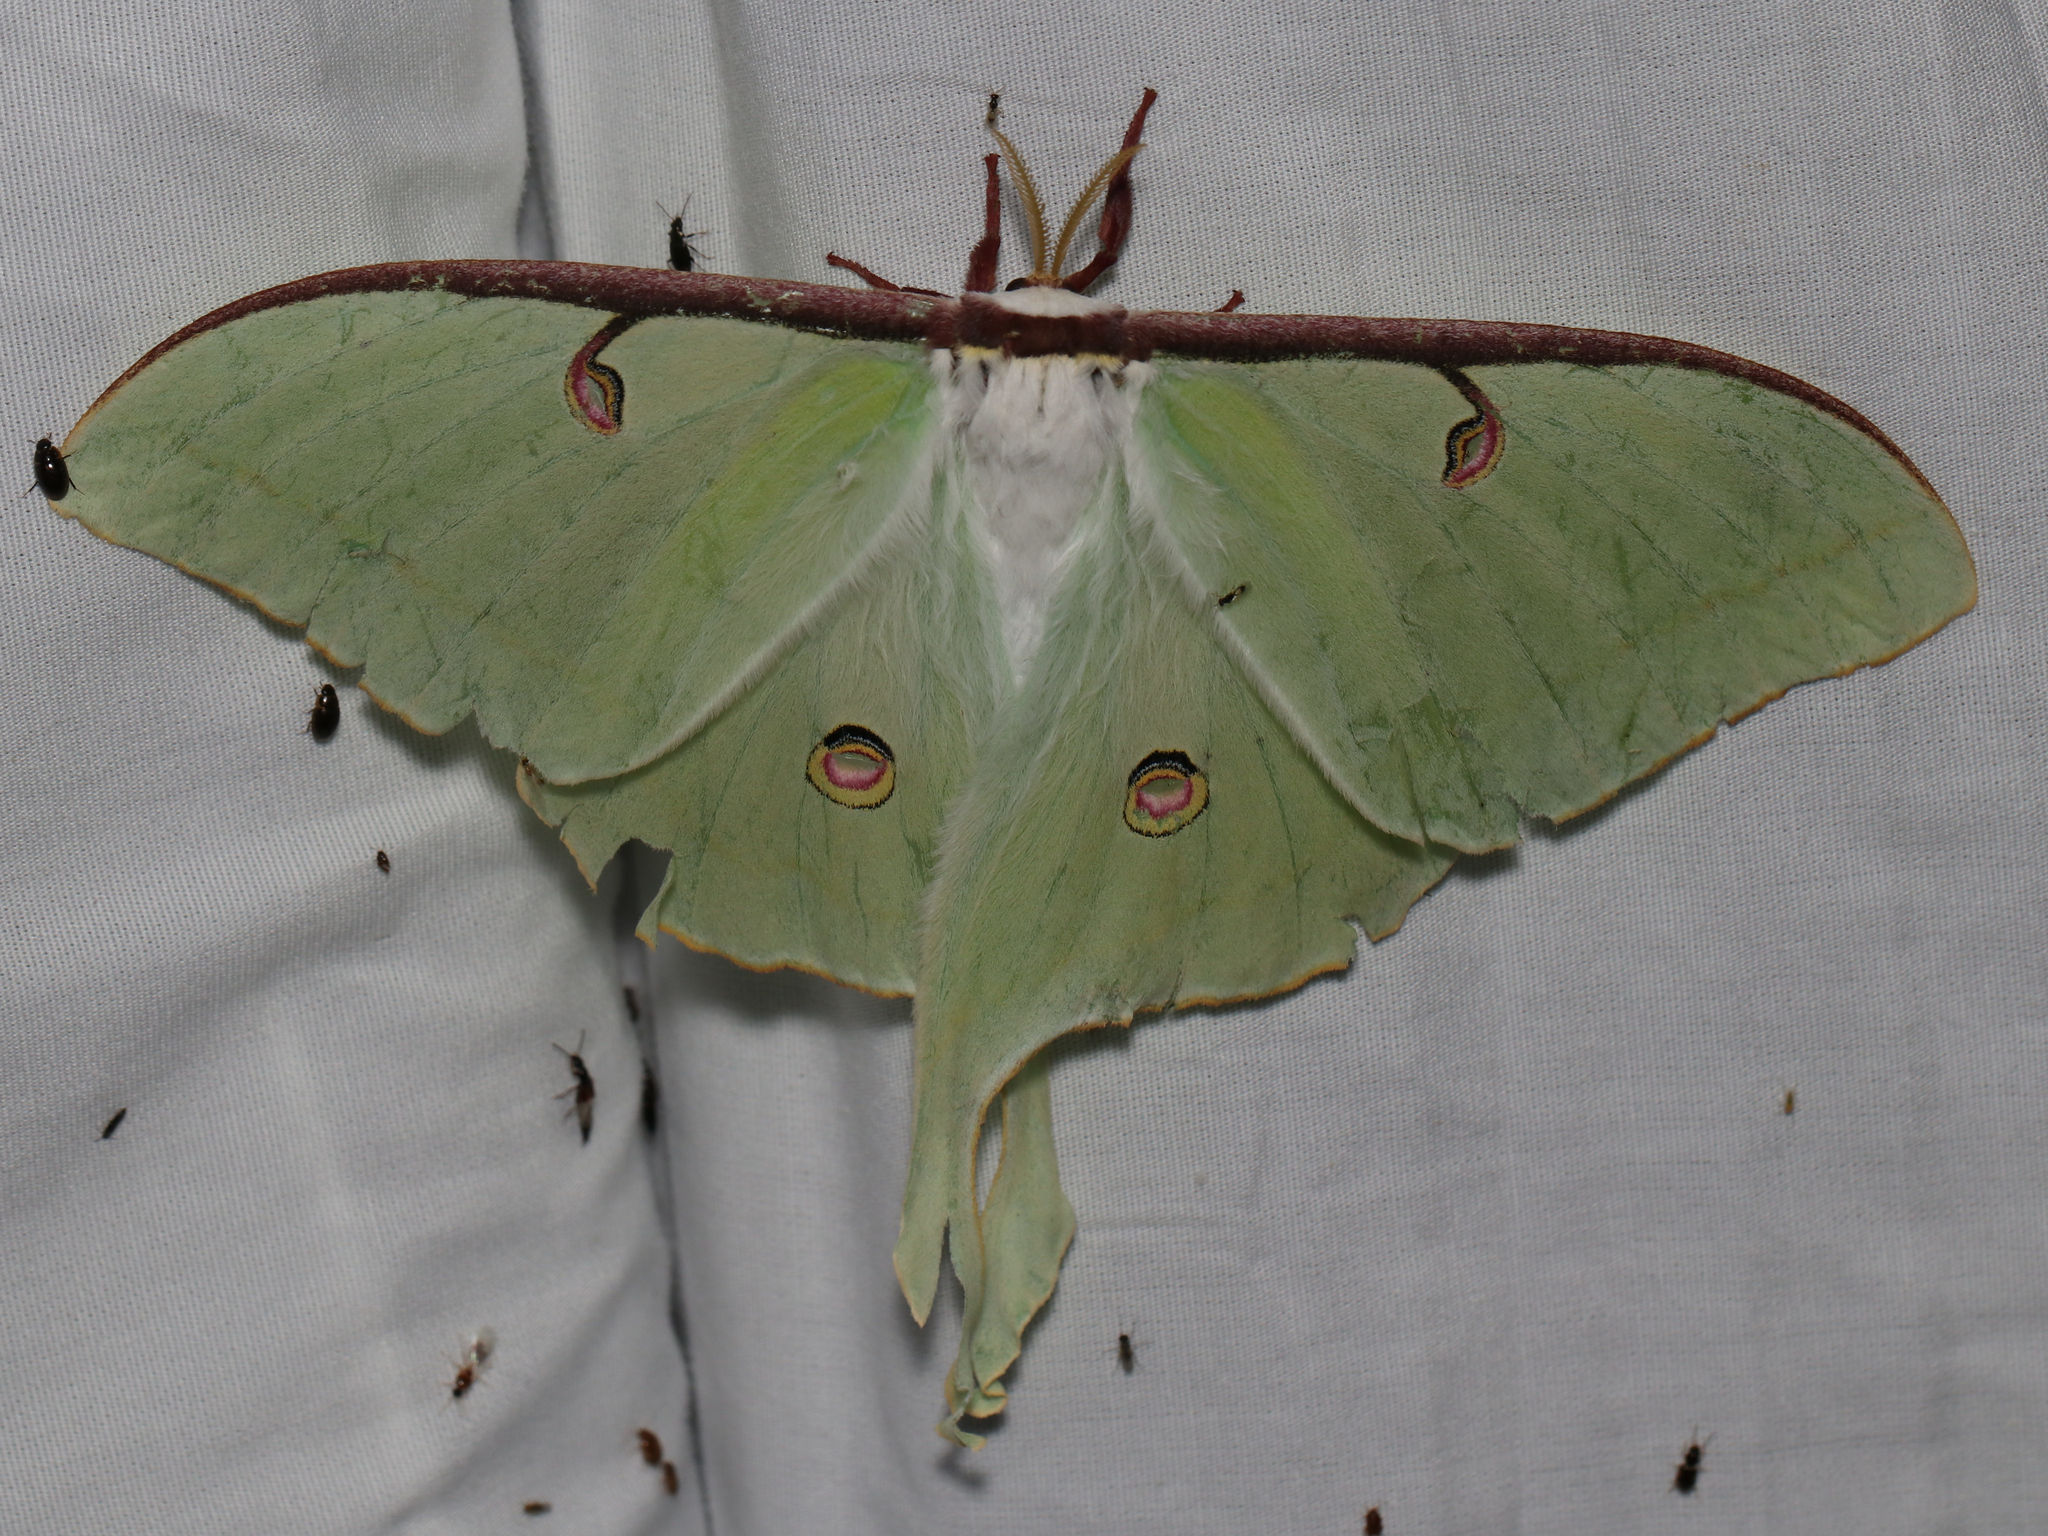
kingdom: Animalia
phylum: Arthropoda
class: Insecta
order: Lepidoptera
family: Saturniidae
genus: Actias
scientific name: Actias luna
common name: Luna moth
